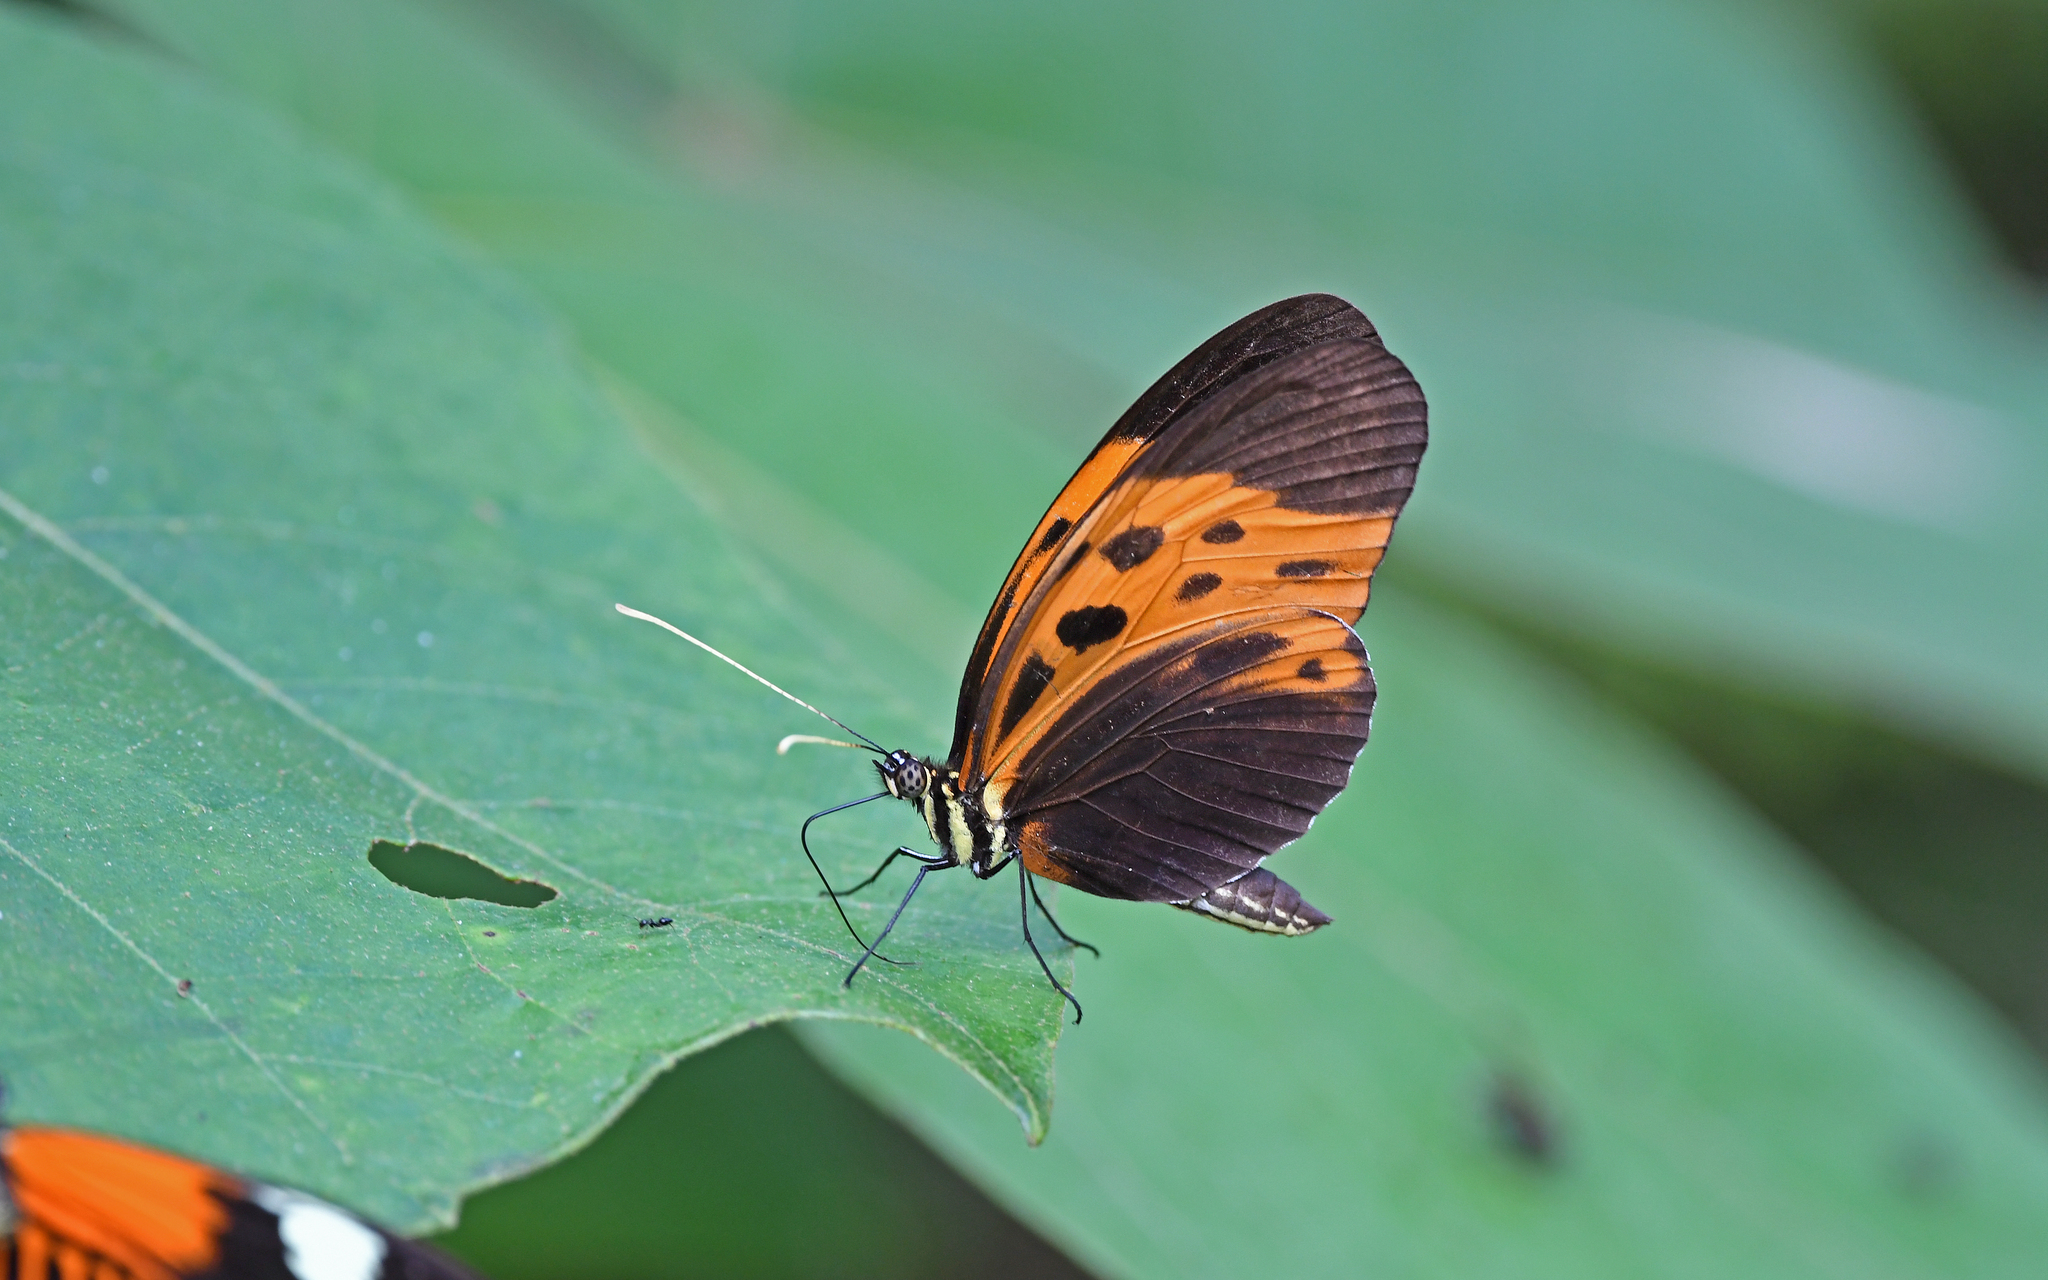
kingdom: Animalia
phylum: Arthropoda
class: Insecta
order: Lepidoptera
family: Nymphalidae
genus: Heliconius
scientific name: Heliconius numatus
